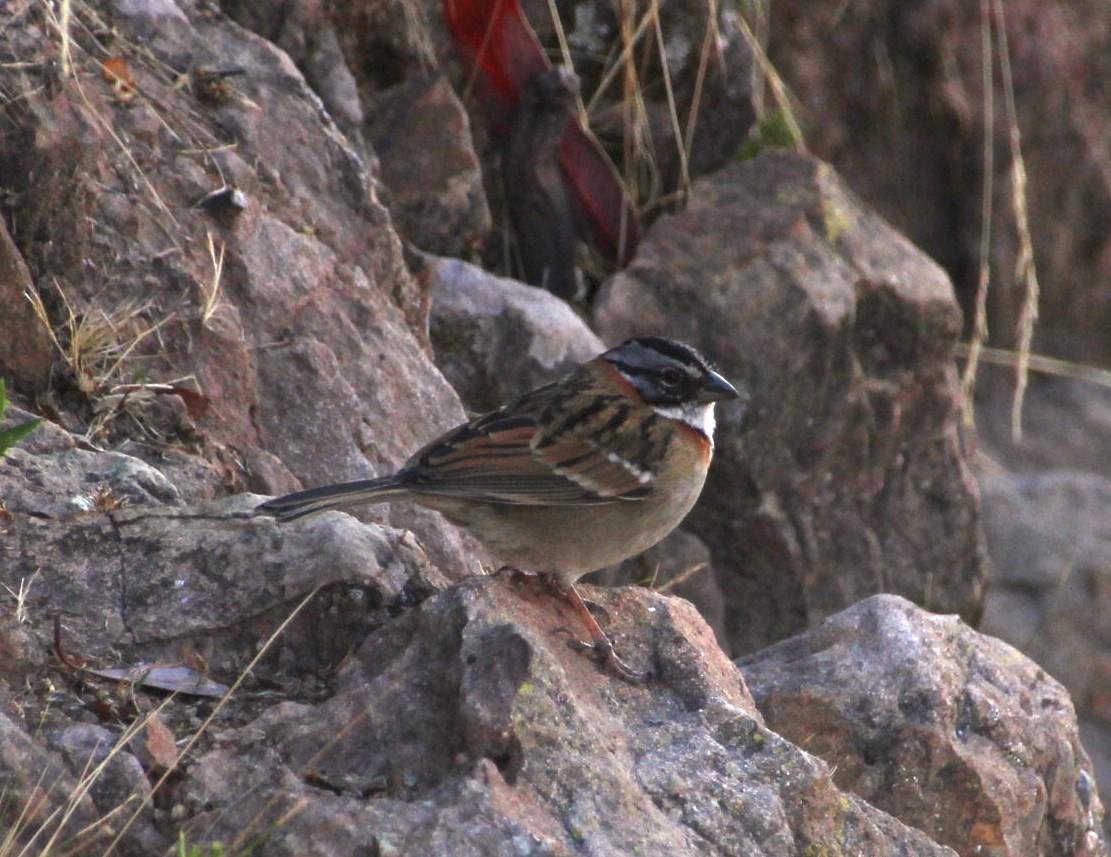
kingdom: Animalia
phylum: Chordata
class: Aves
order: Passeriformes
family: Passerellidae
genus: Zonotrichia
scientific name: Zonotrichia capensis
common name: Rufous-collared sparrow
